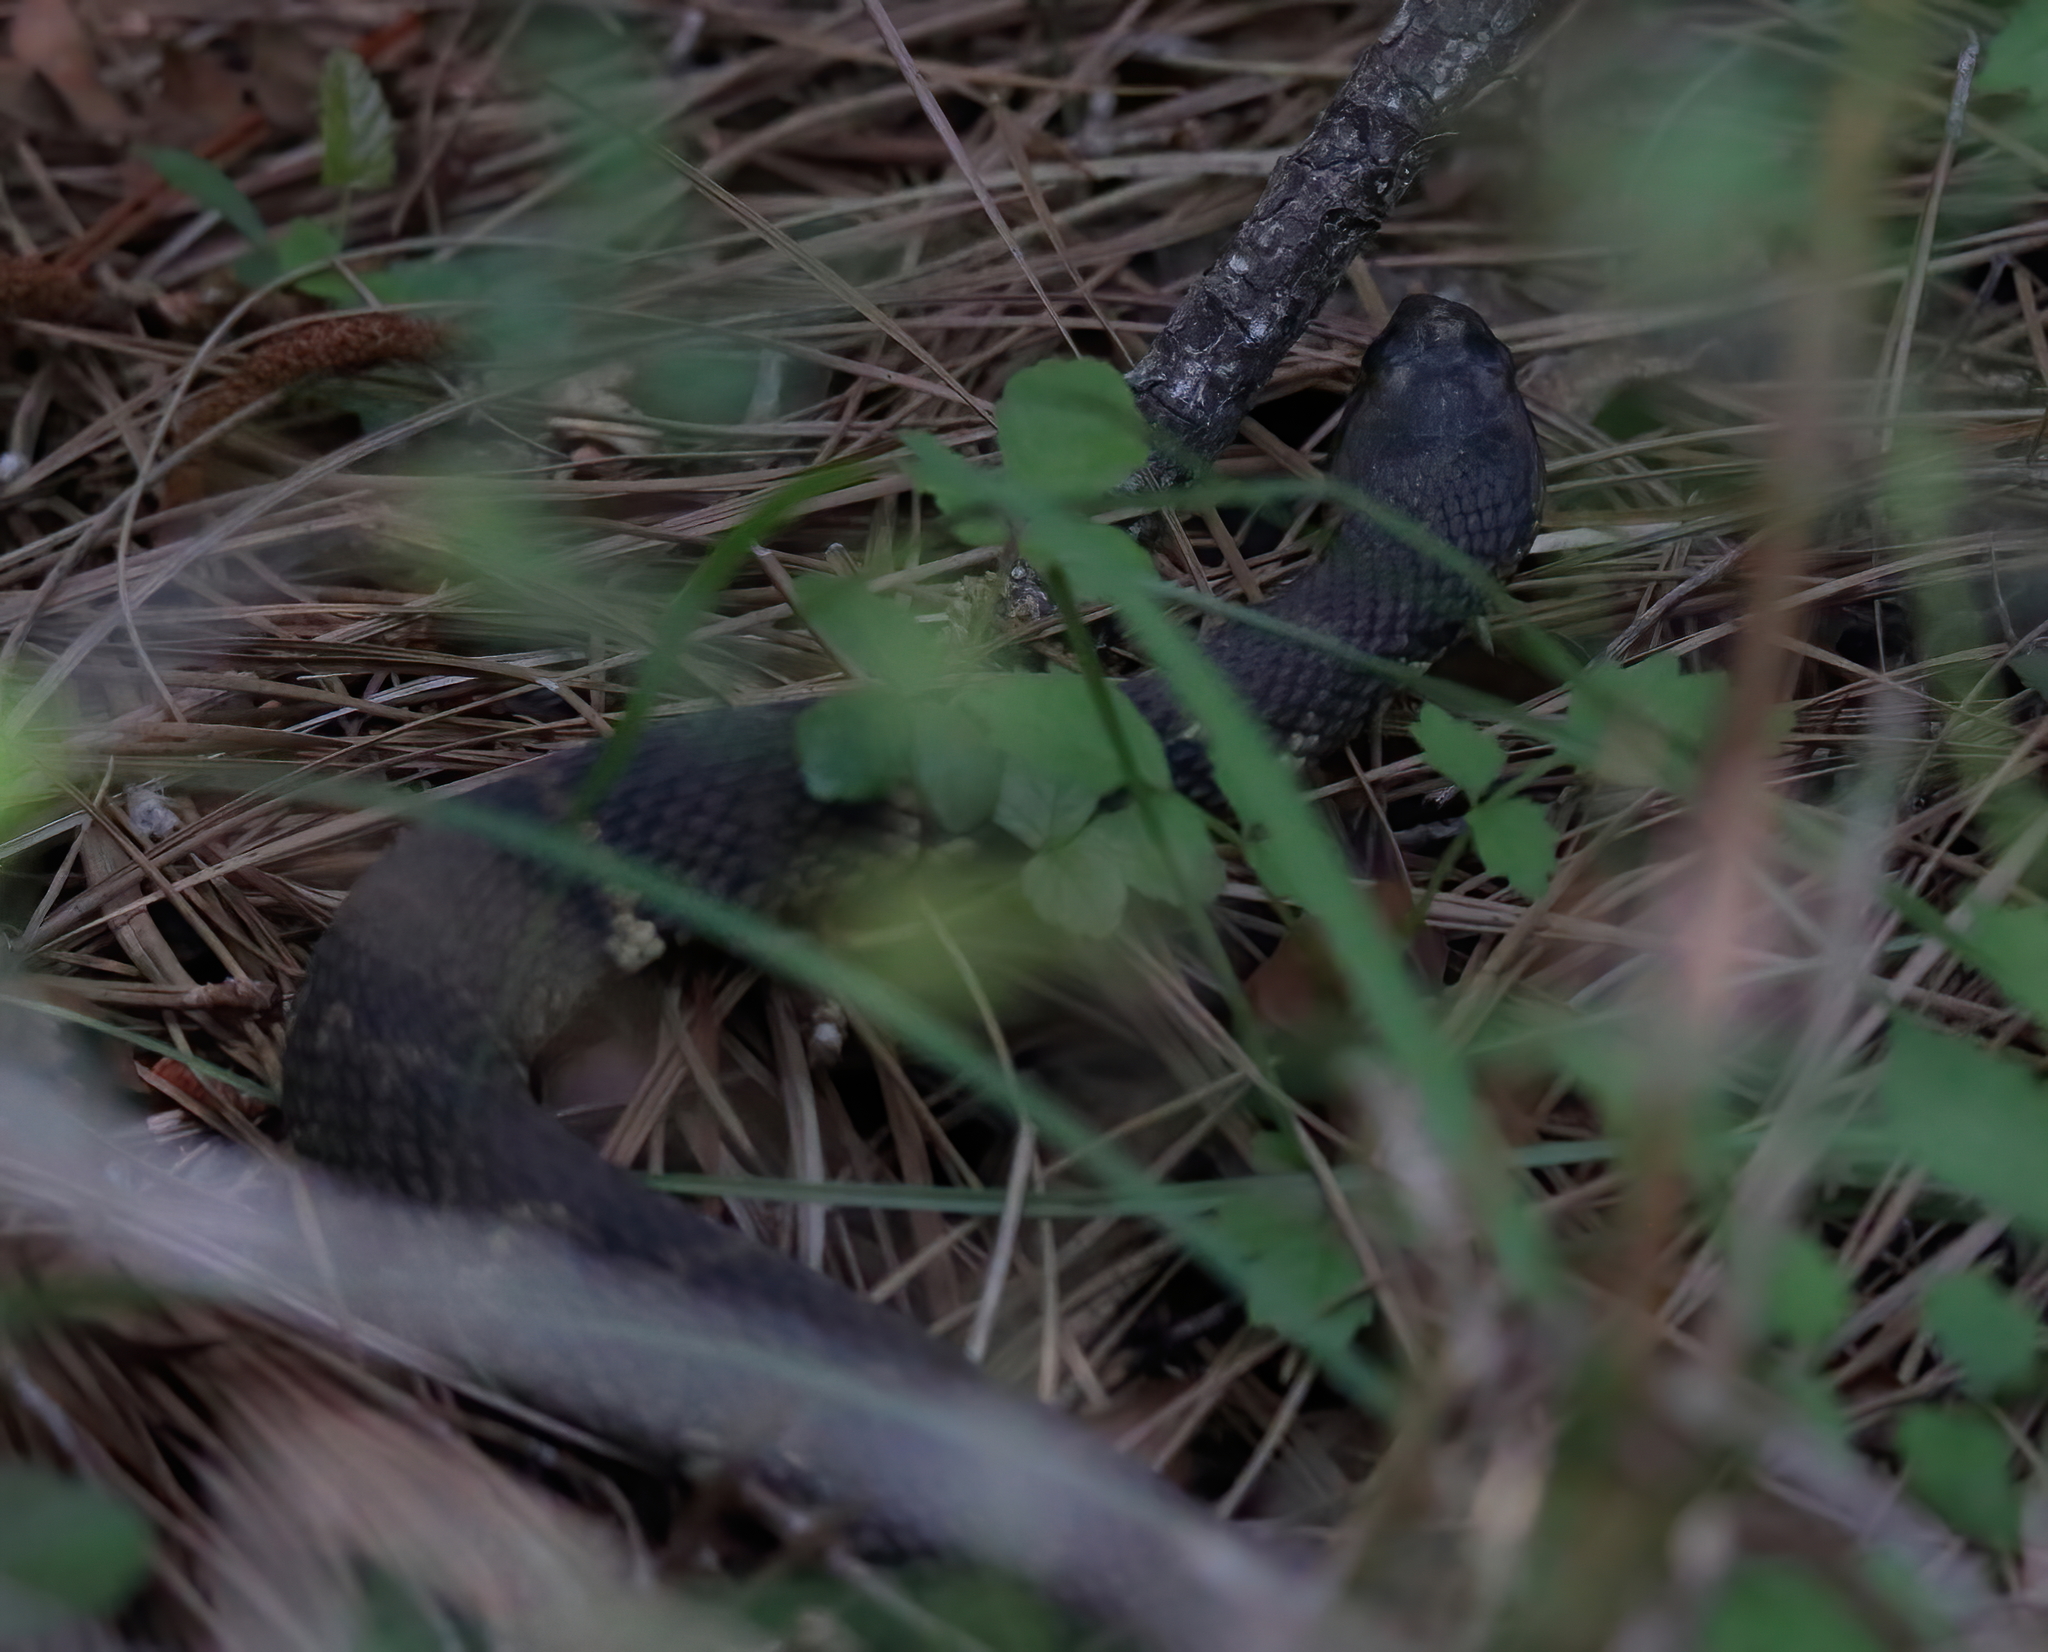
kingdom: Animalia
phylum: Chordata
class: Squamata
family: Colubridae
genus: Nerodia
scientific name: Nerodia fasciata
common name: Southern water snake
